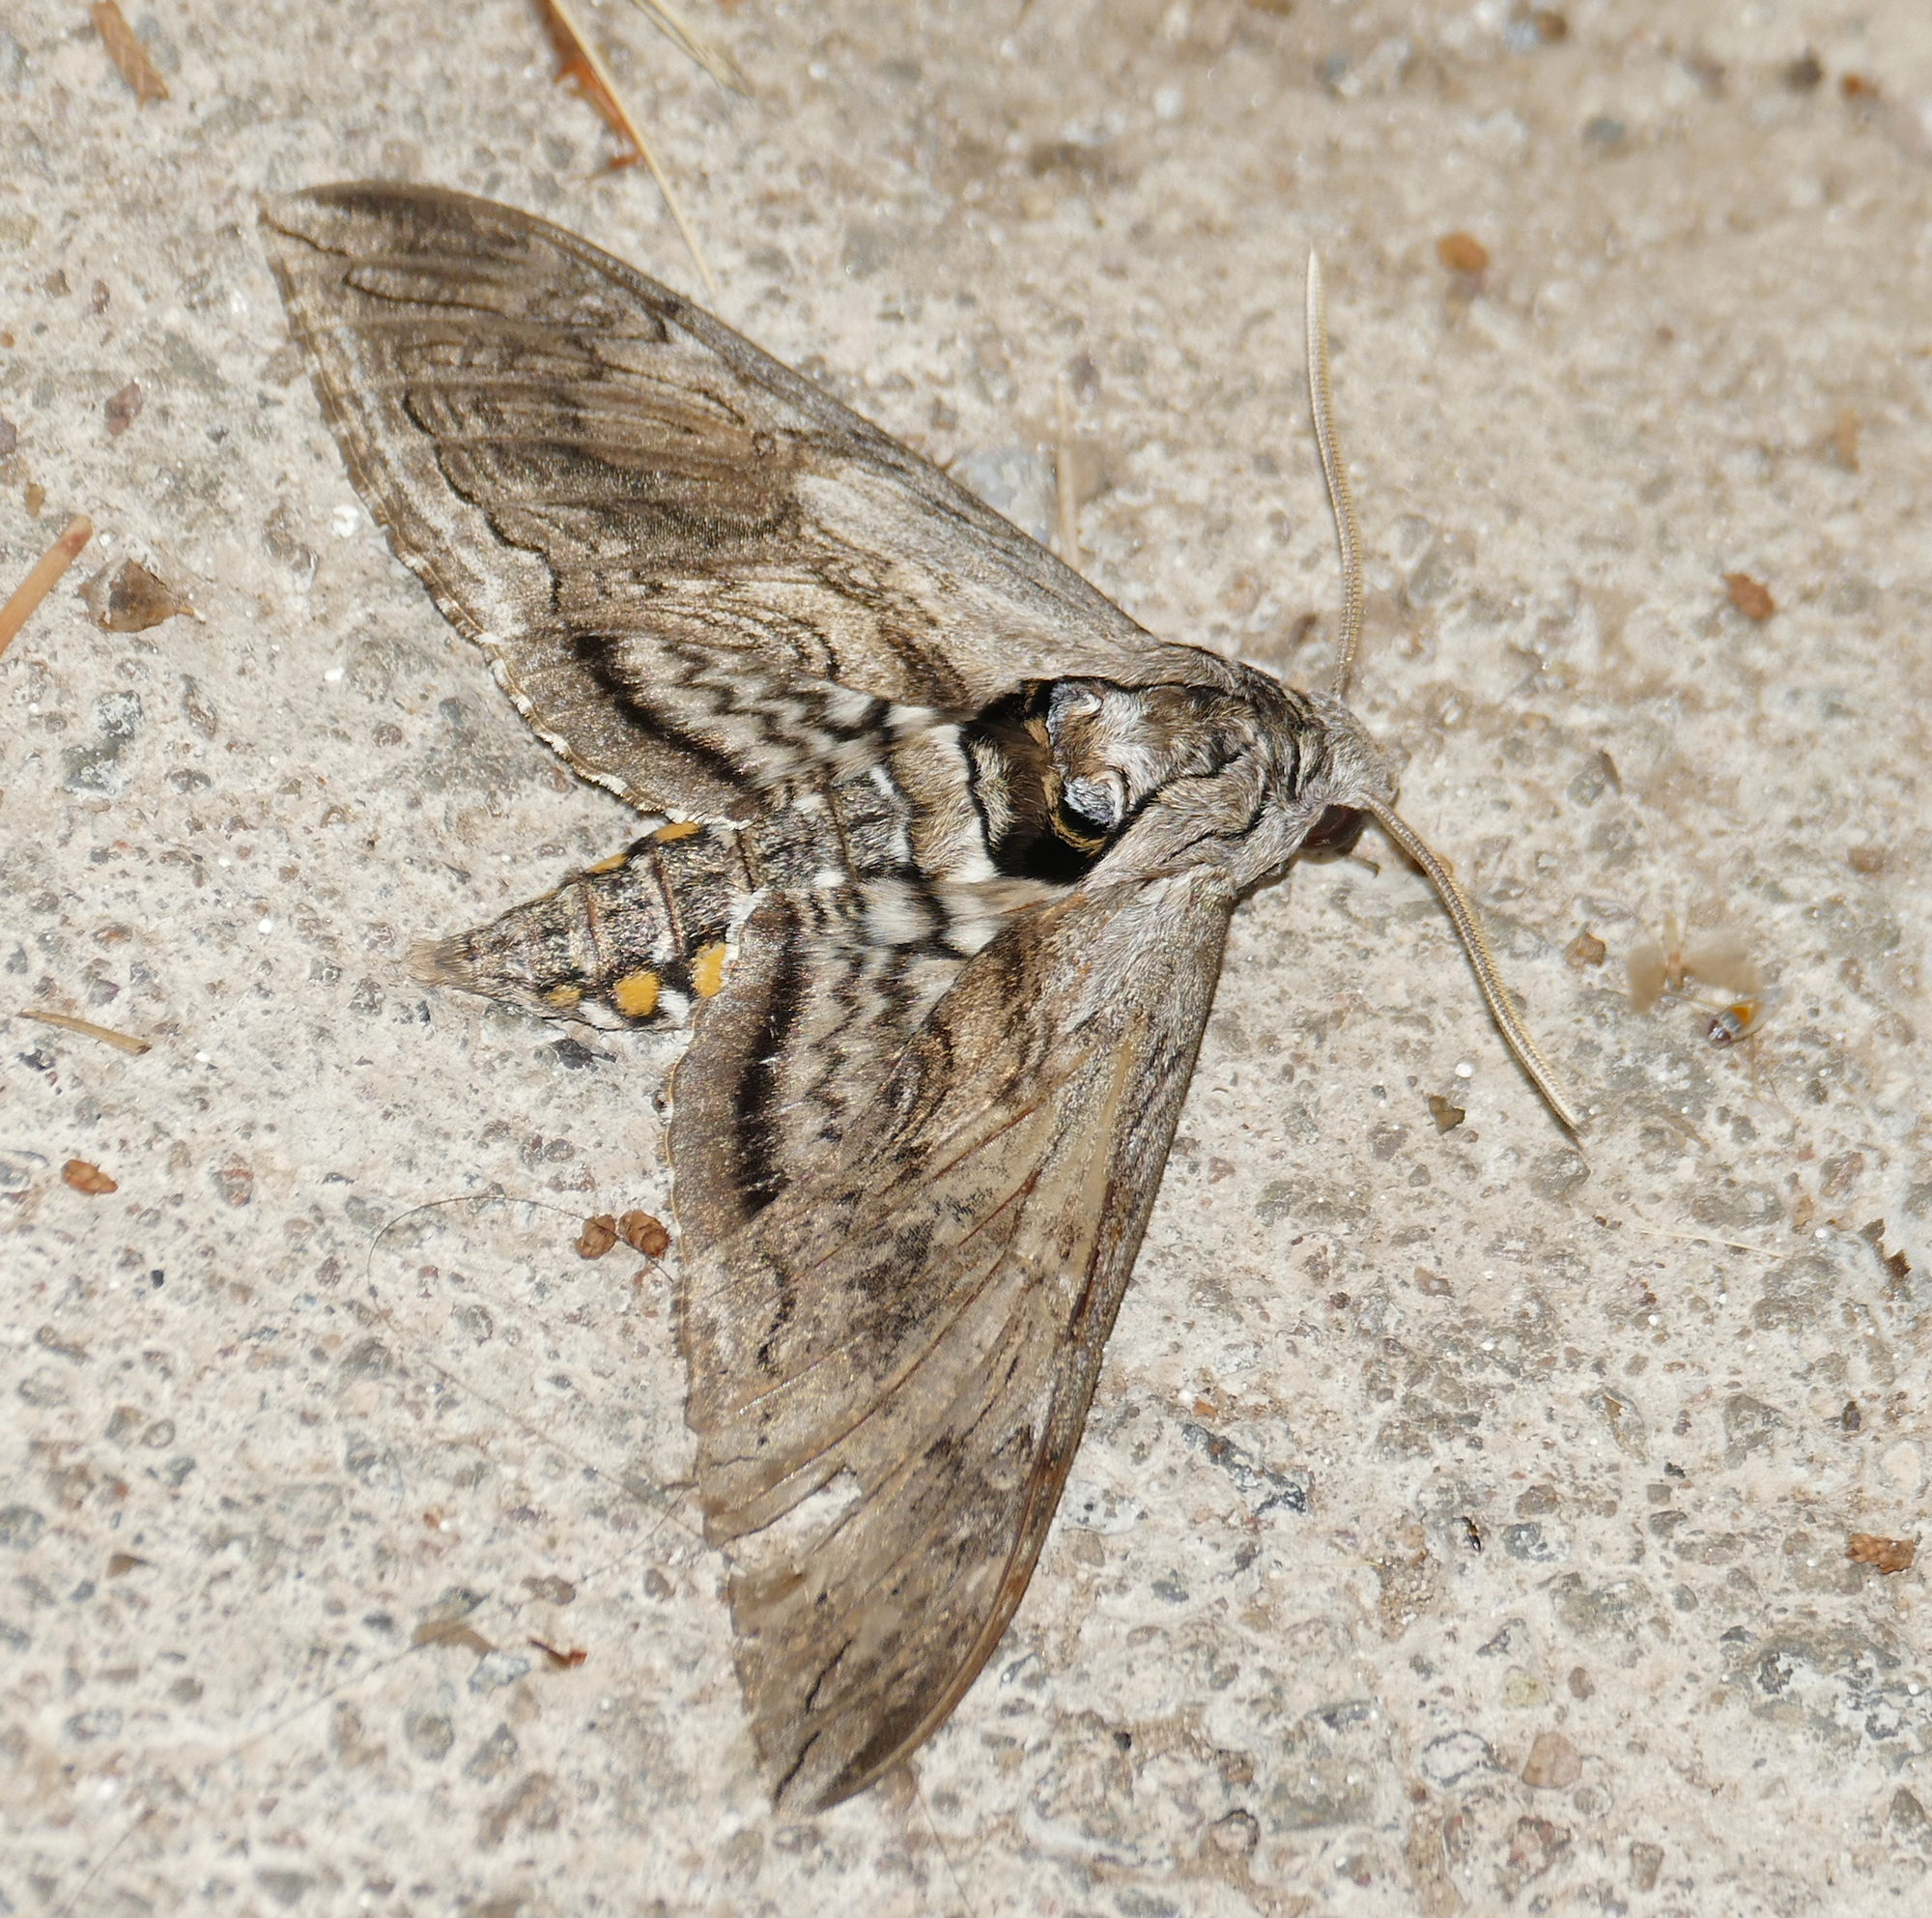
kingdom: Animalia
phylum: Arthropoda
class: Insecta
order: Lepidoptera
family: Sphingidae
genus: Manduca
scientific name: Manduca quinquemaculatus
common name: Five-spotted hawk-moth
